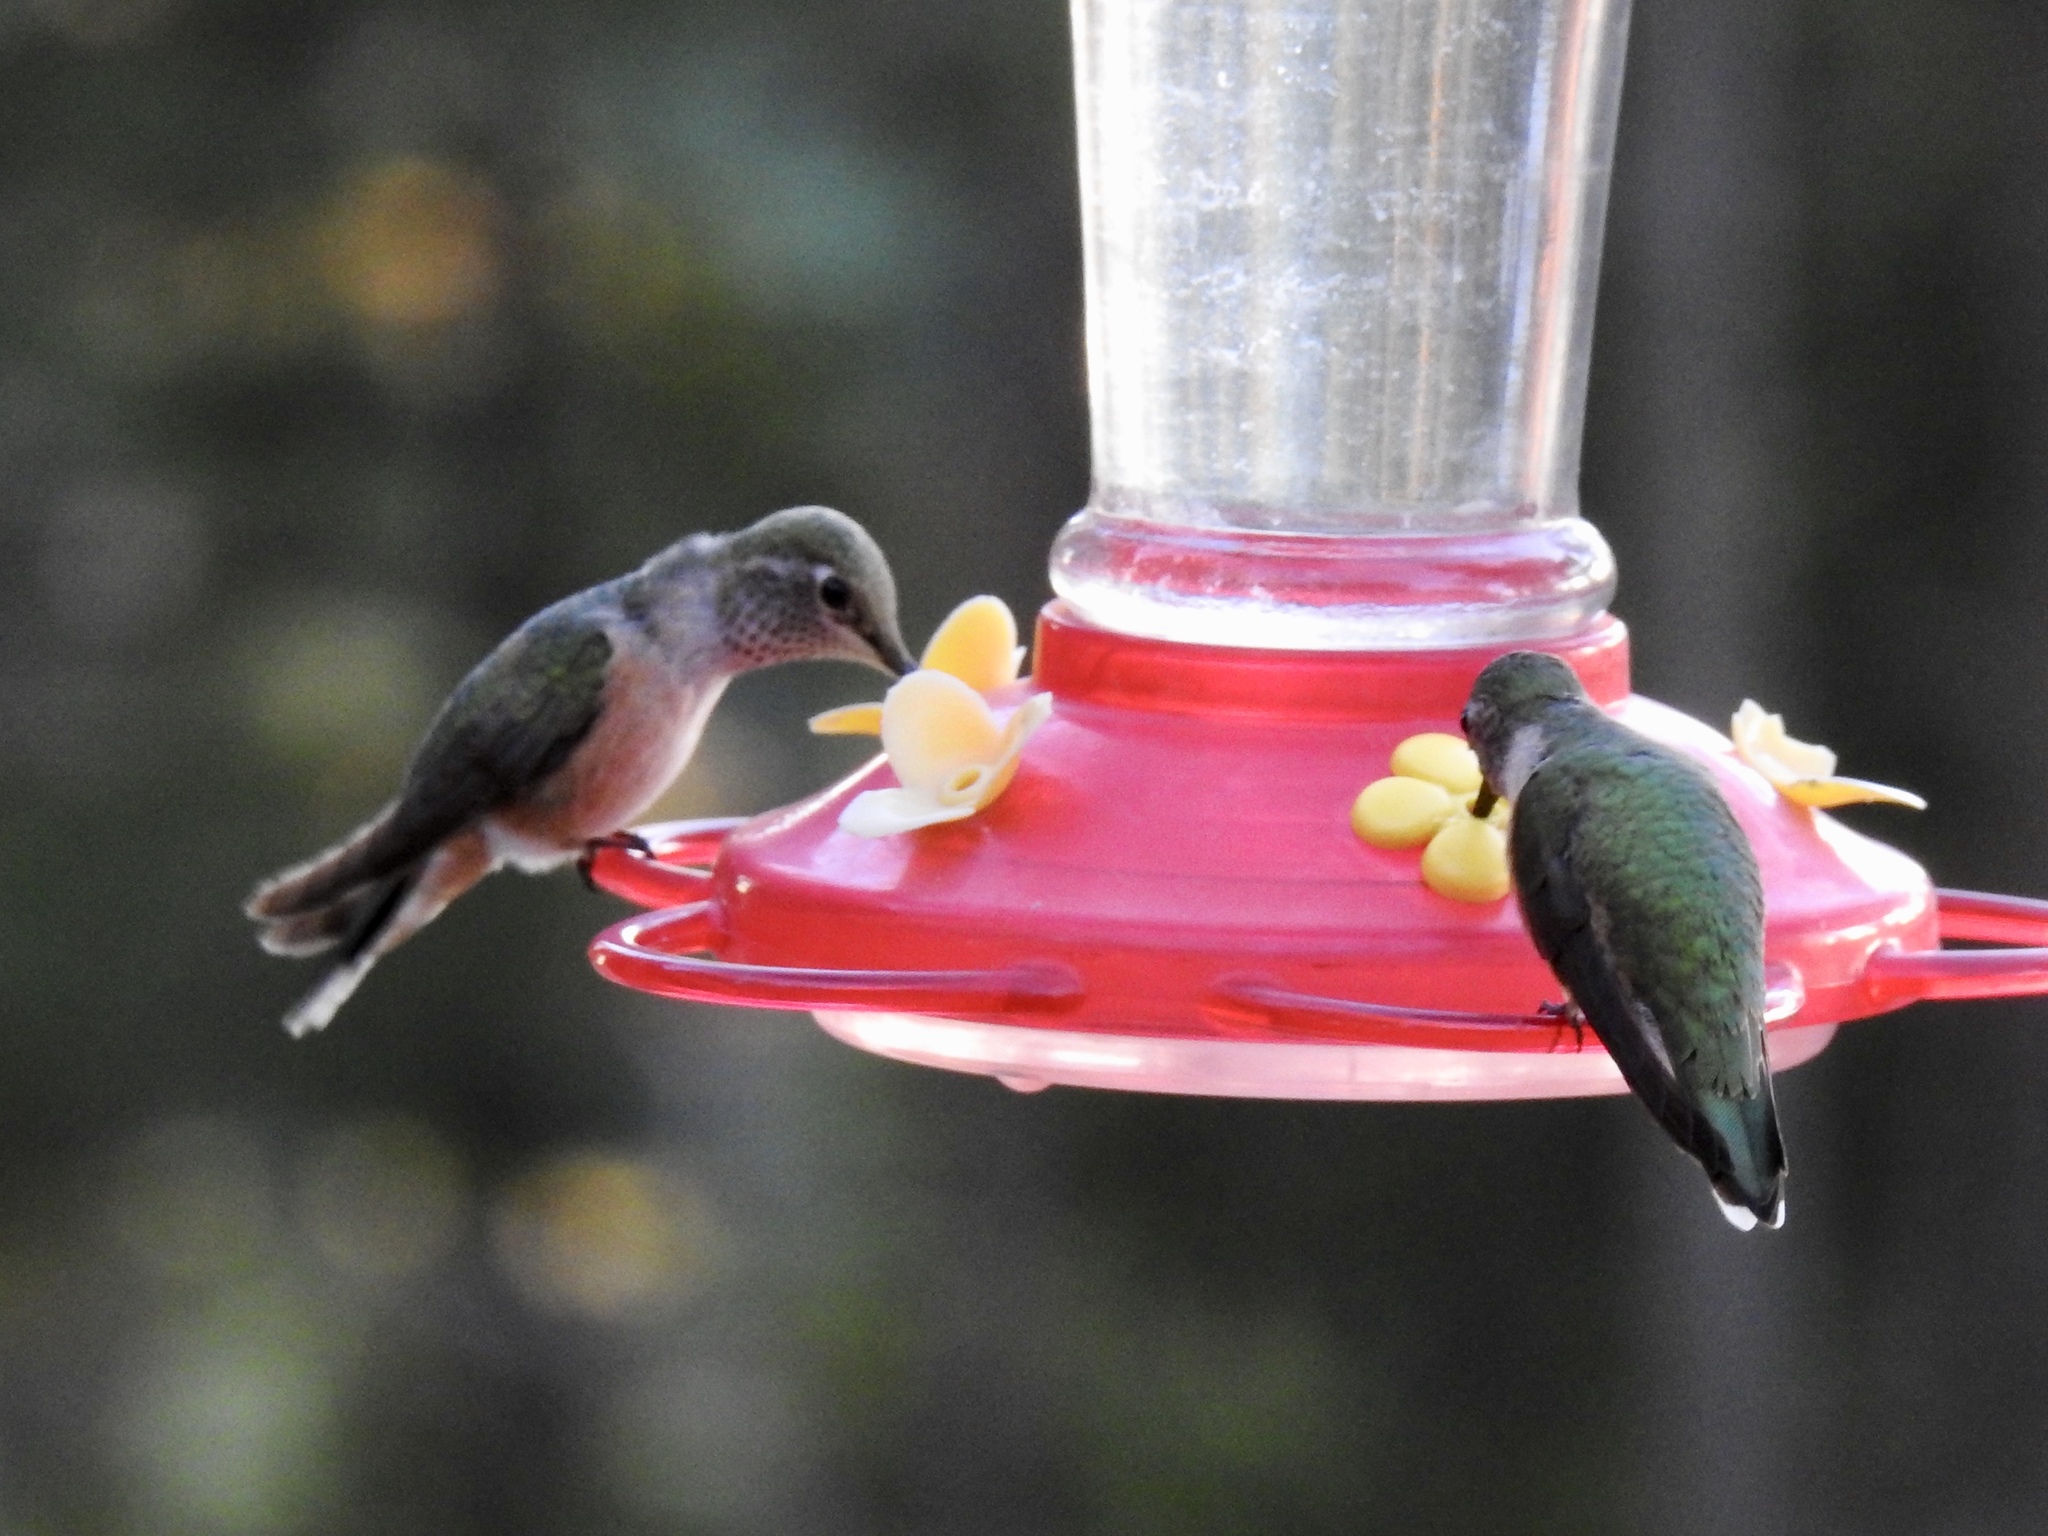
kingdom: Animalia
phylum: Chordata
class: Aves
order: Apodiformes
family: Trochilidae
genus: Selasphorus
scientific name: Selasphorus platycercus
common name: Broad-tailed hummingbird
